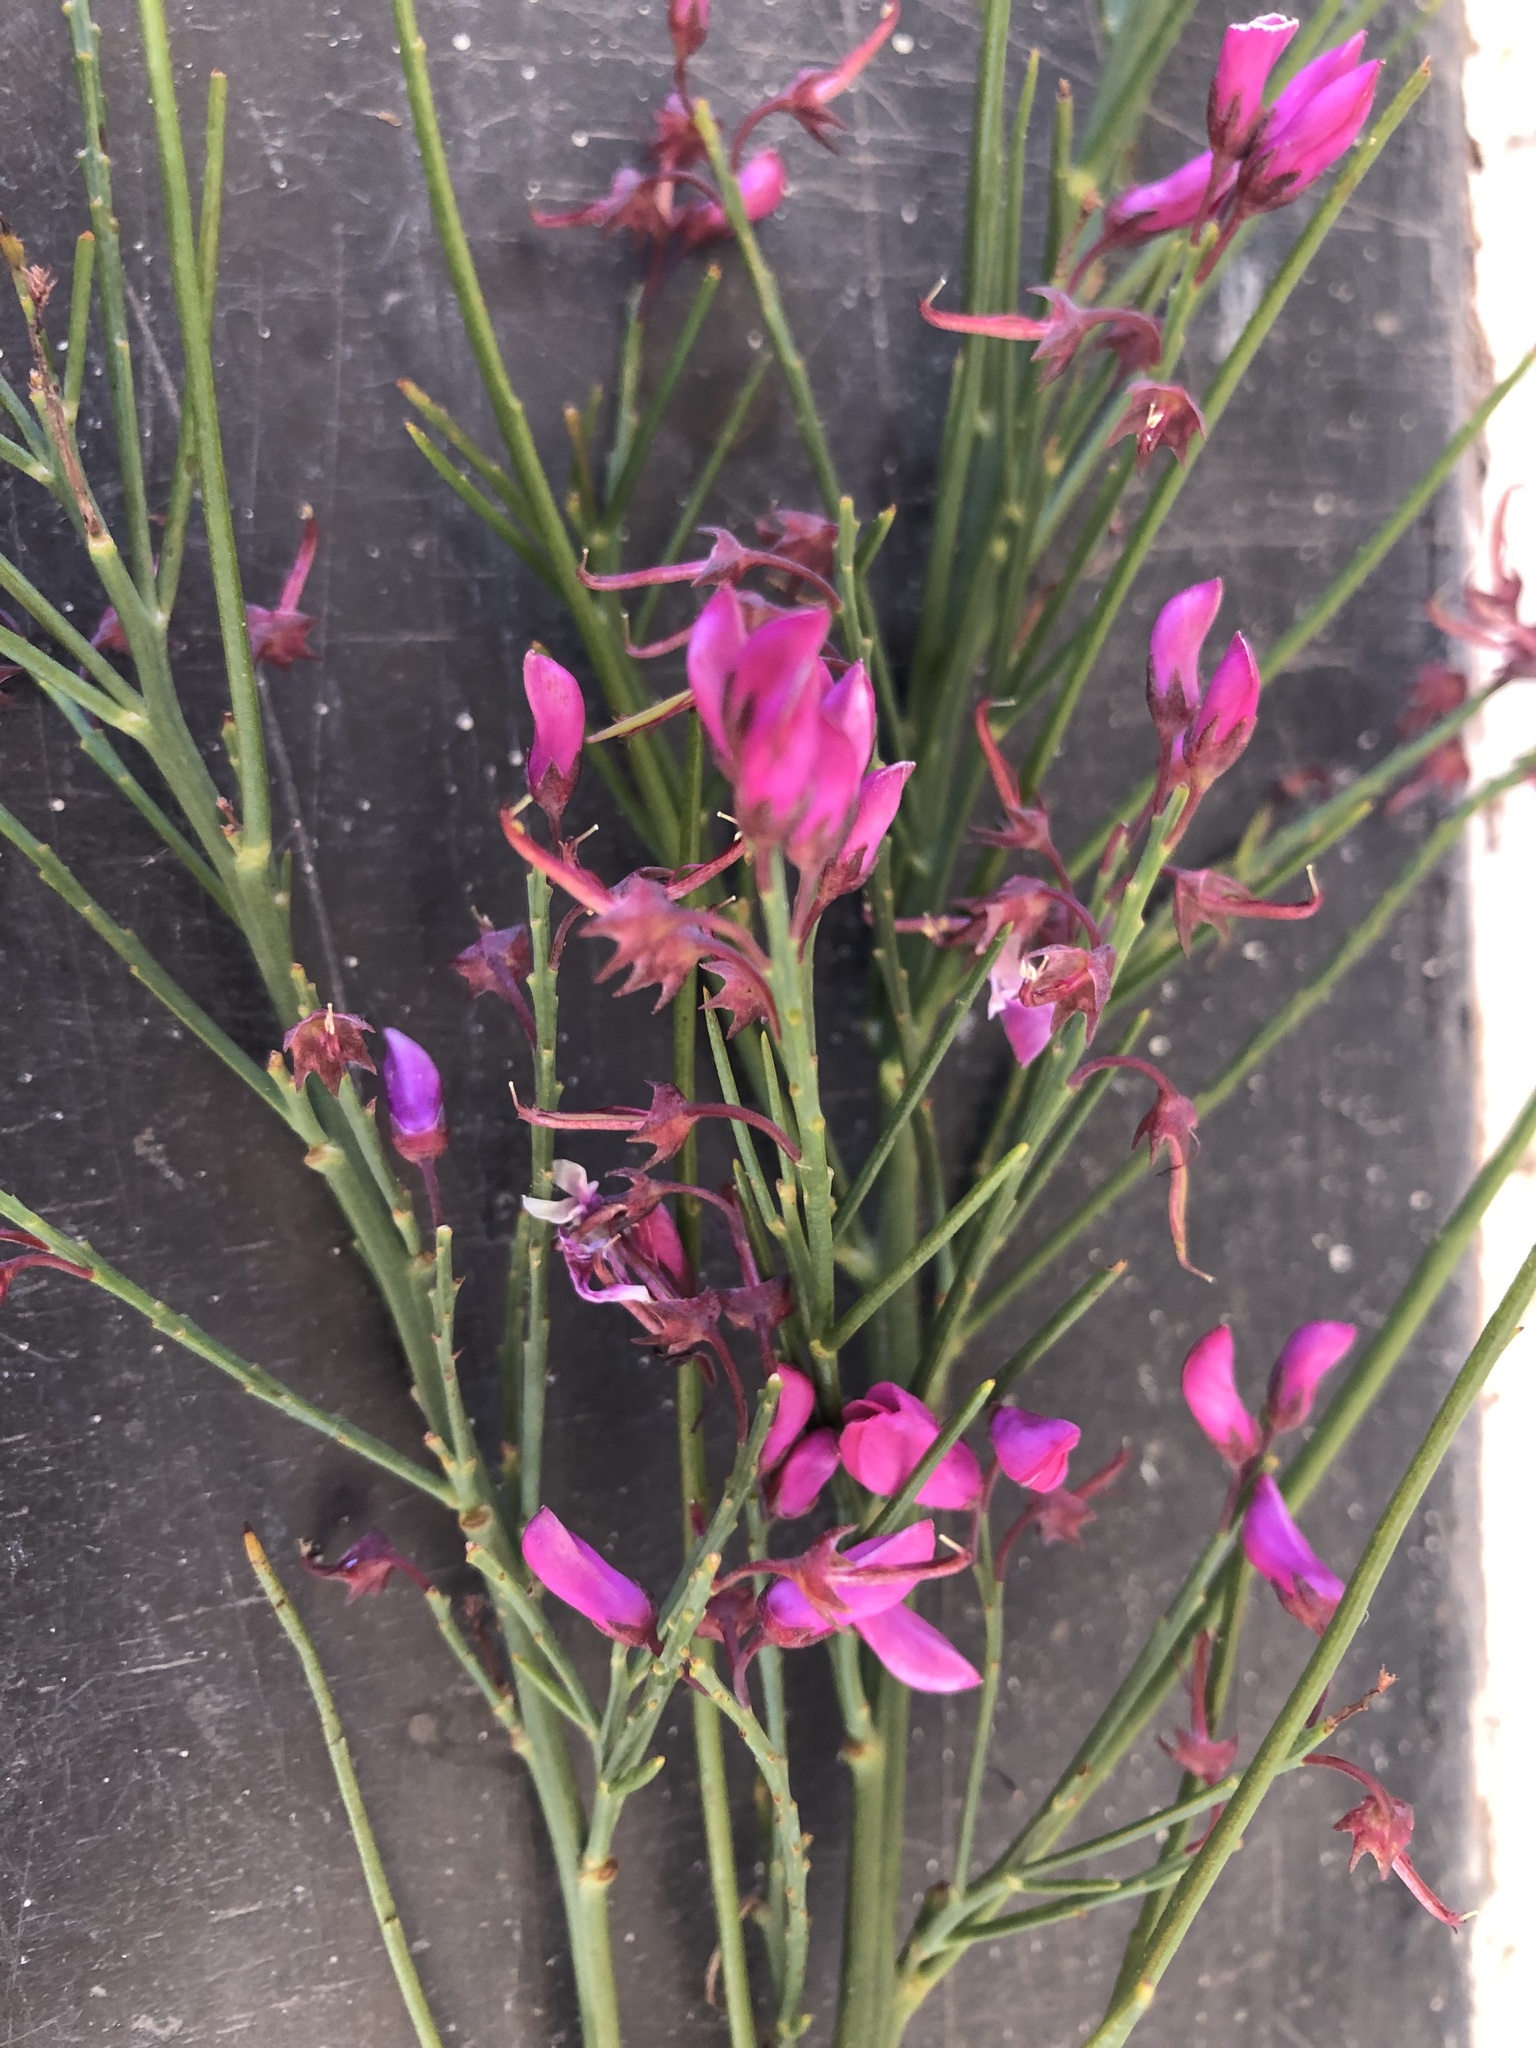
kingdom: Plantae
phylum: Tracheophyta
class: Magnoliopsida
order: Fabales
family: Fabaceae
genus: Indigofera
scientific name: Indigofera filifolia
